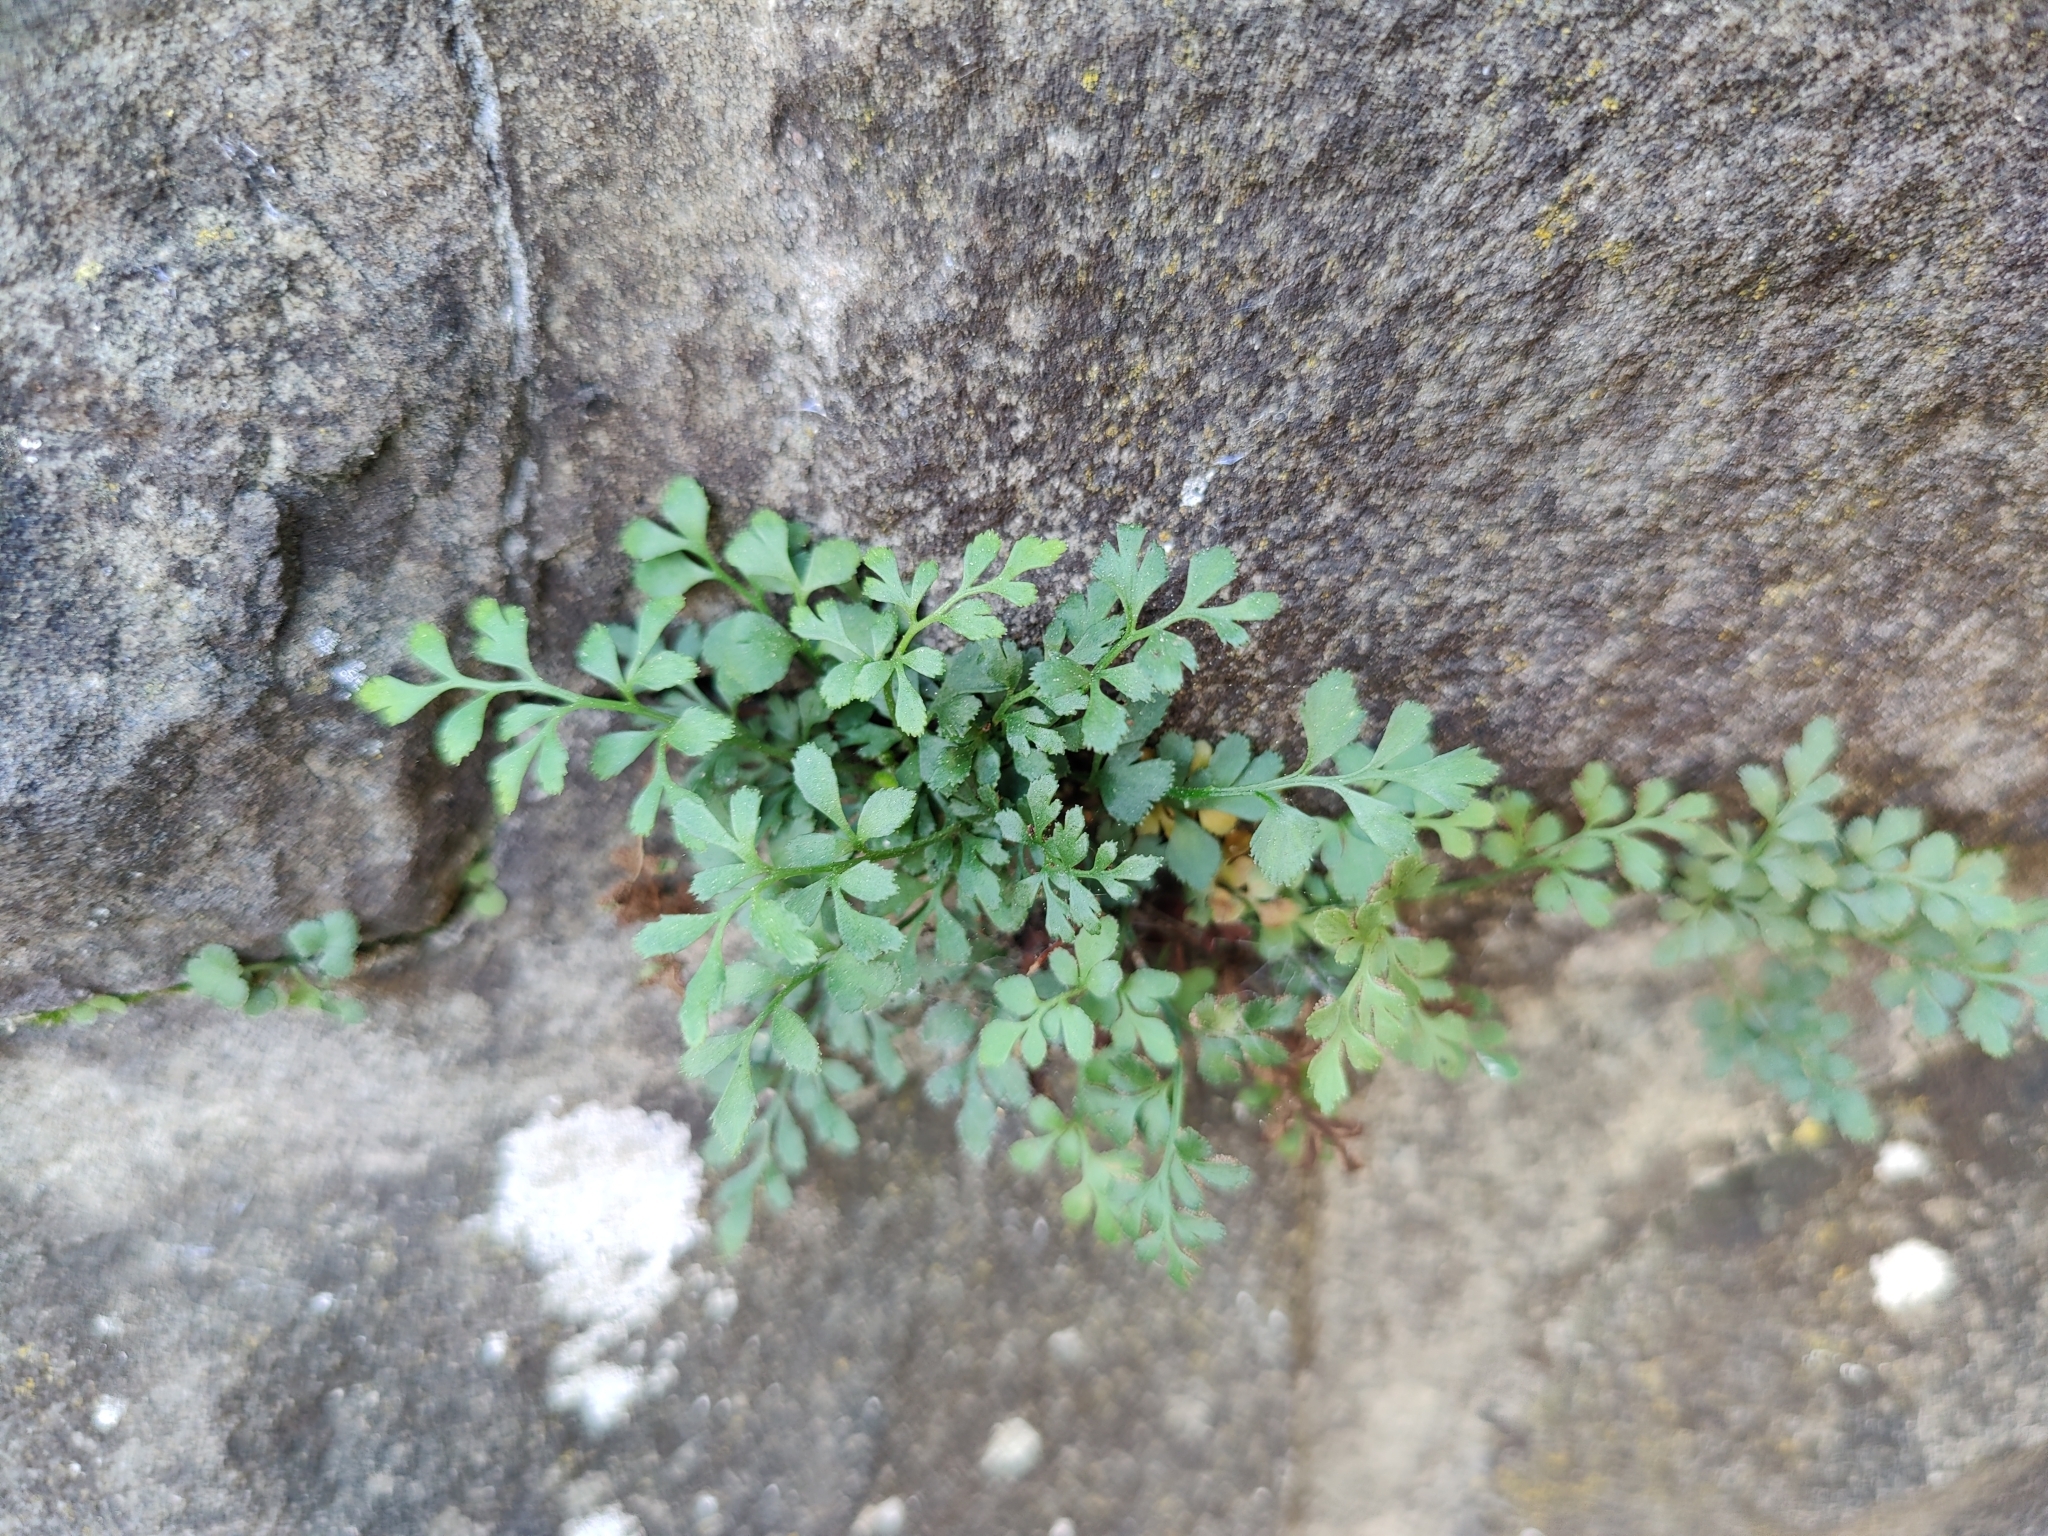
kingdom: Plantae
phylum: Tracheophyta
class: Polypodiopsida
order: Polypodiales
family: Aspleniaceae
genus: Asplenium
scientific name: Asplenium ruta-muraria
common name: Wall-rue
